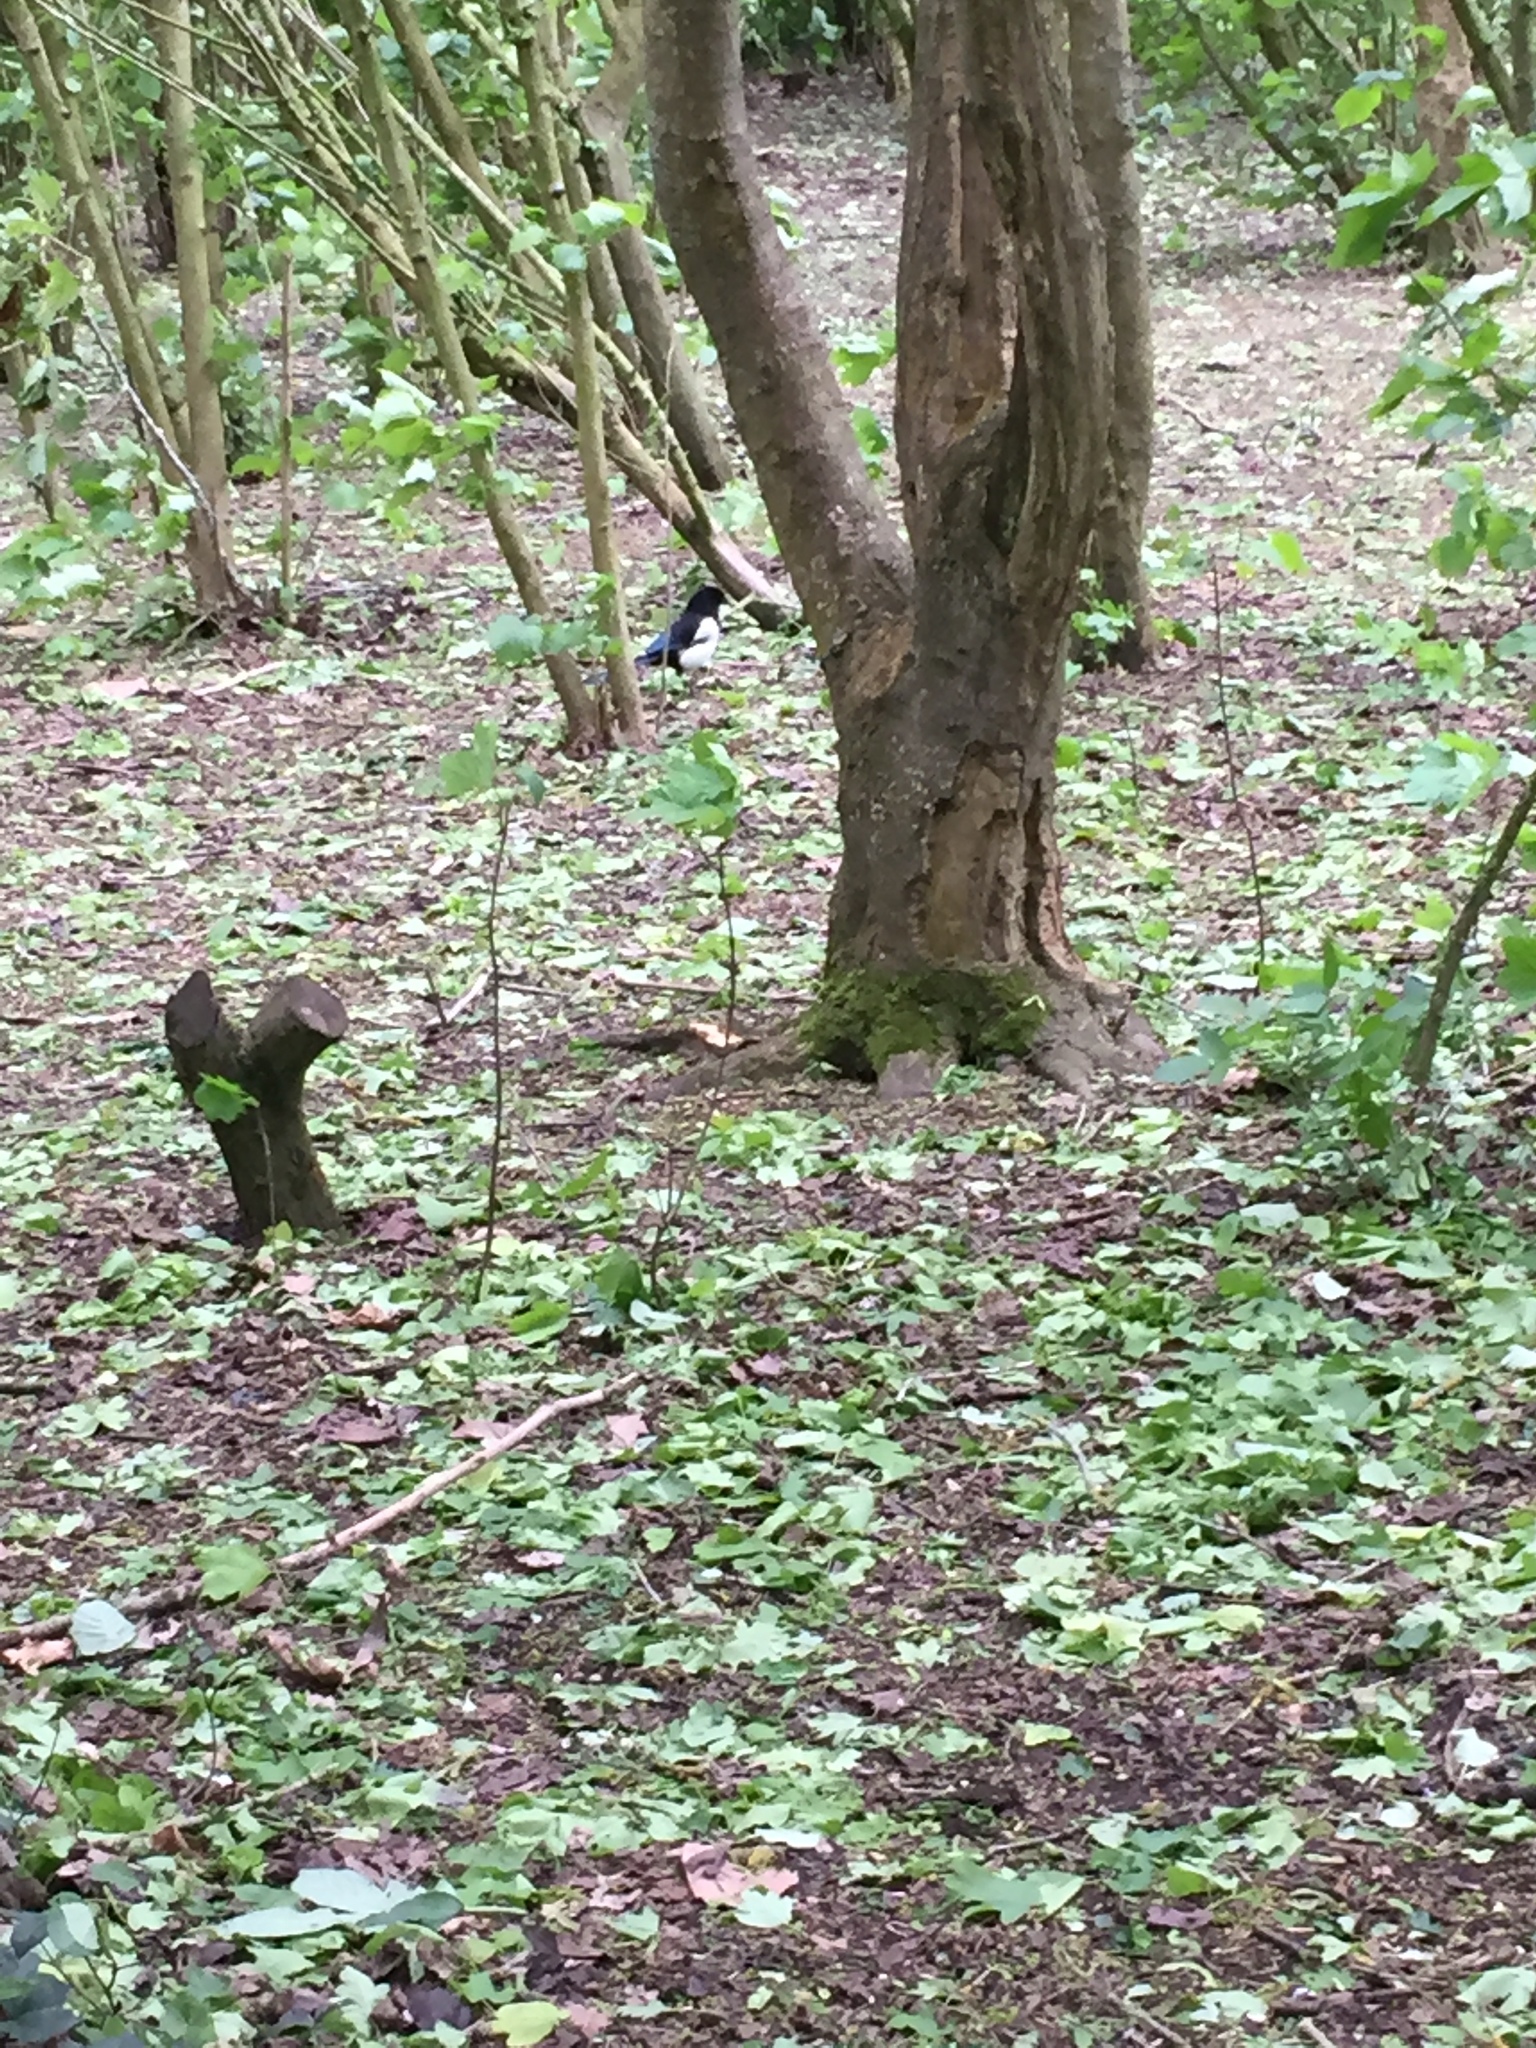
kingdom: Animalia
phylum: Chordata
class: Aves
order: Passeriformes
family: Corvidae
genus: Pica
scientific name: Pica pica
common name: Eurasian magpie
